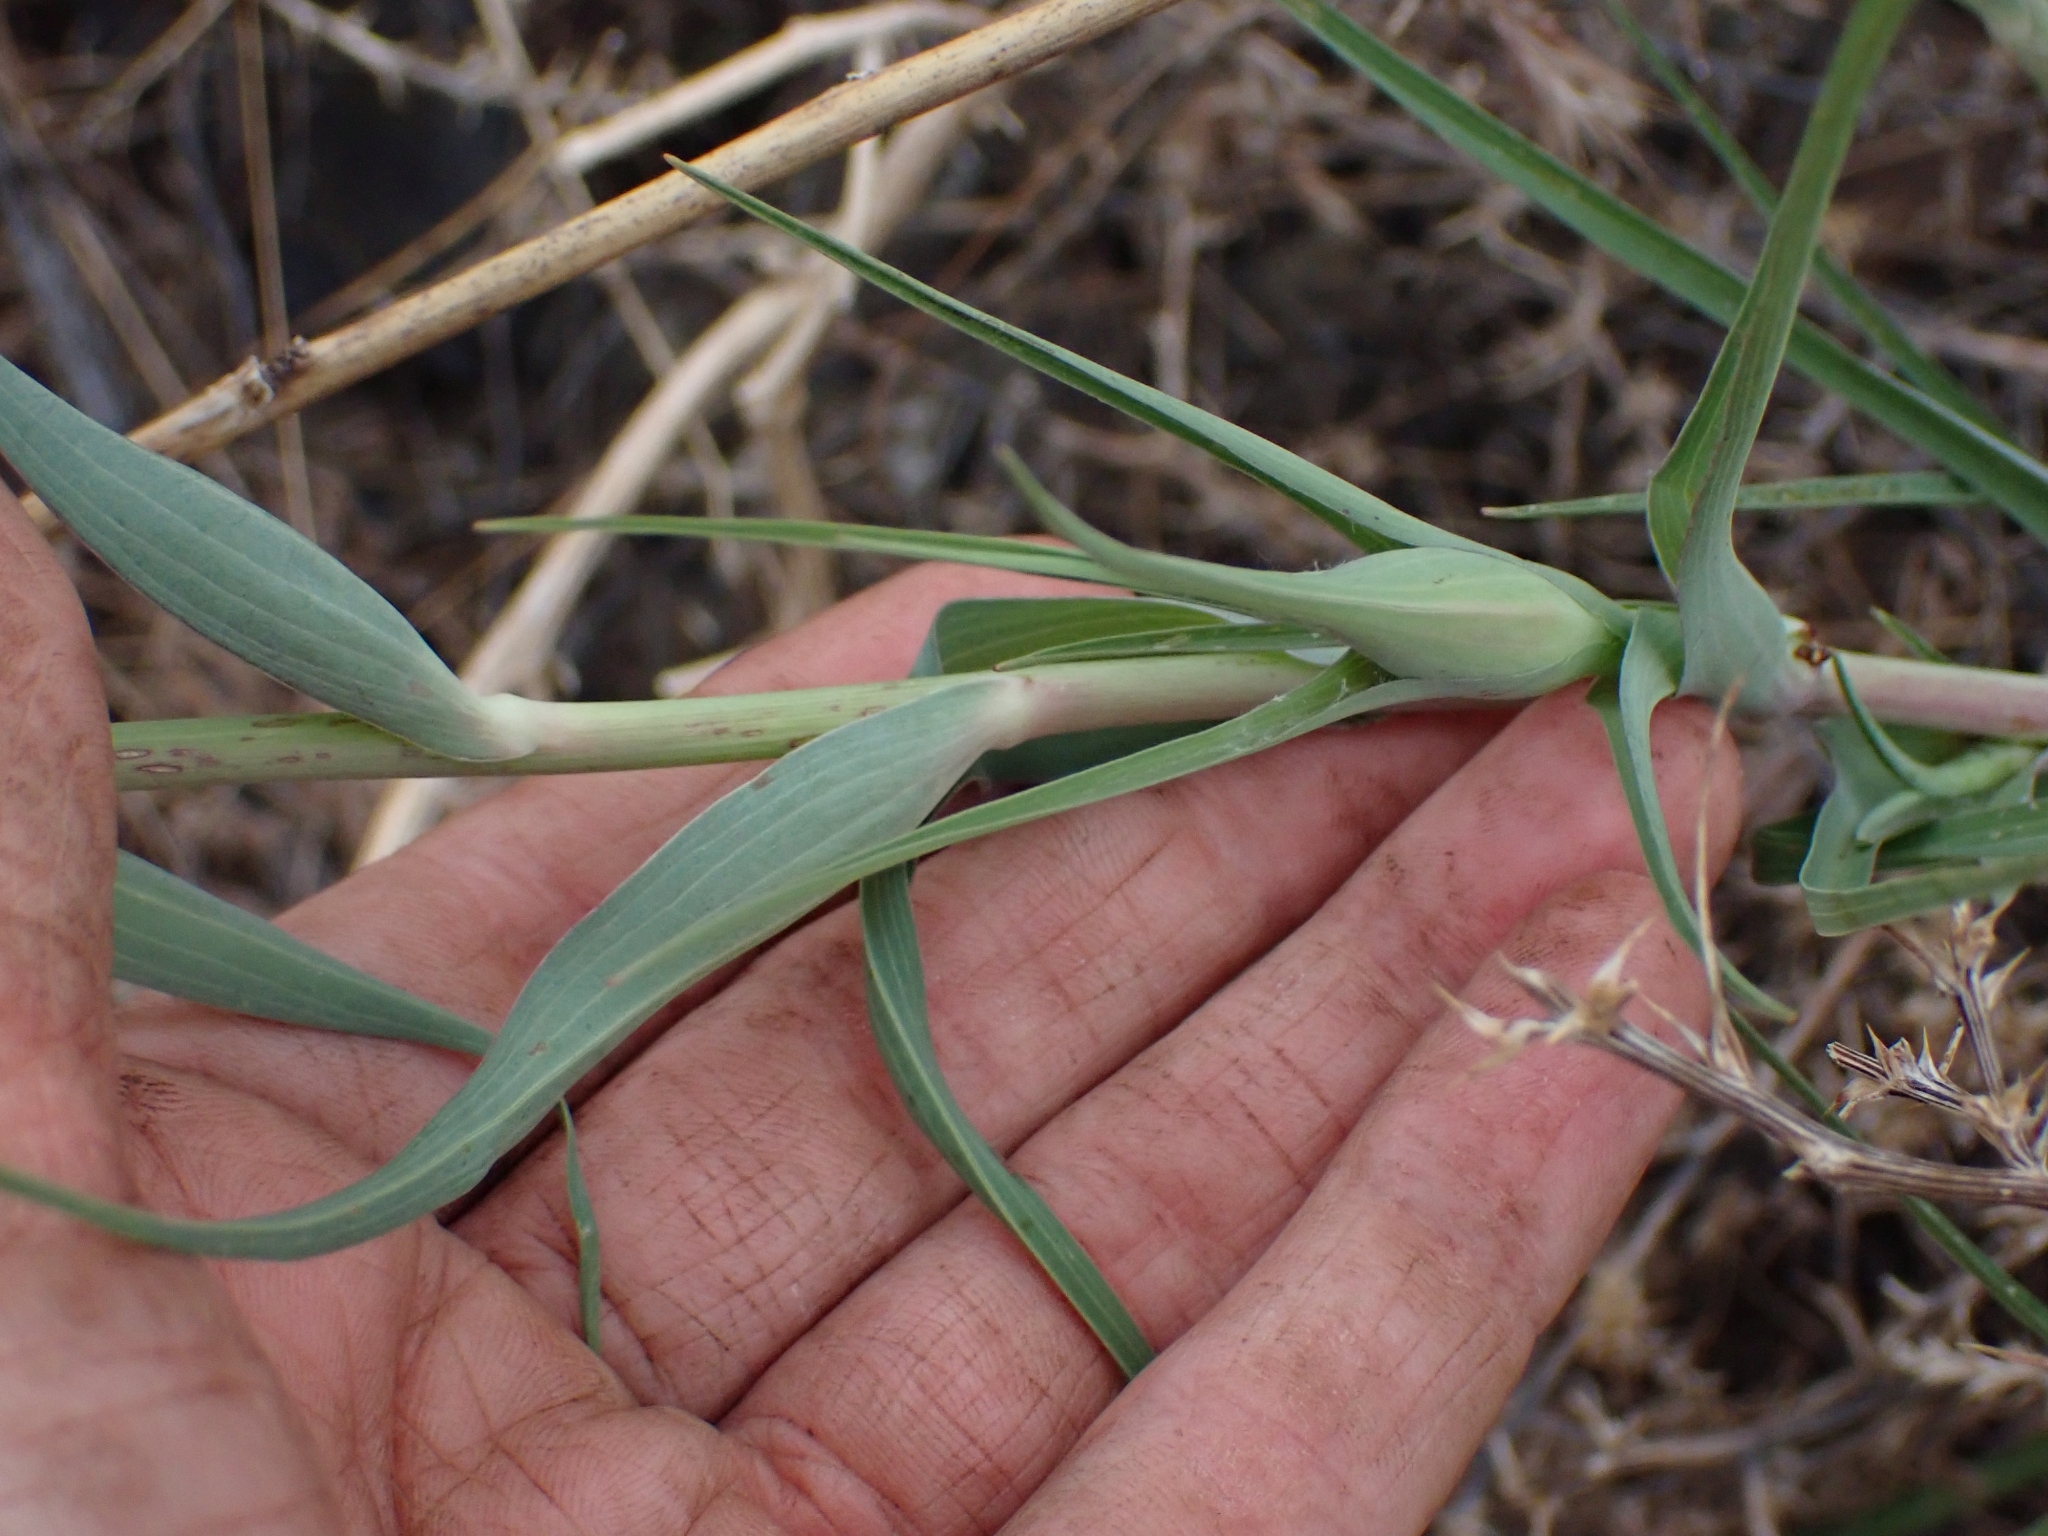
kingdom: Plantae
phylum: Tracheophyta
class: Magnoliopsida
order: Asterales
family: Asteraceae
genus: Tragopogon
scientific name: Tragopogon dubius
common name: Yellow salsify
